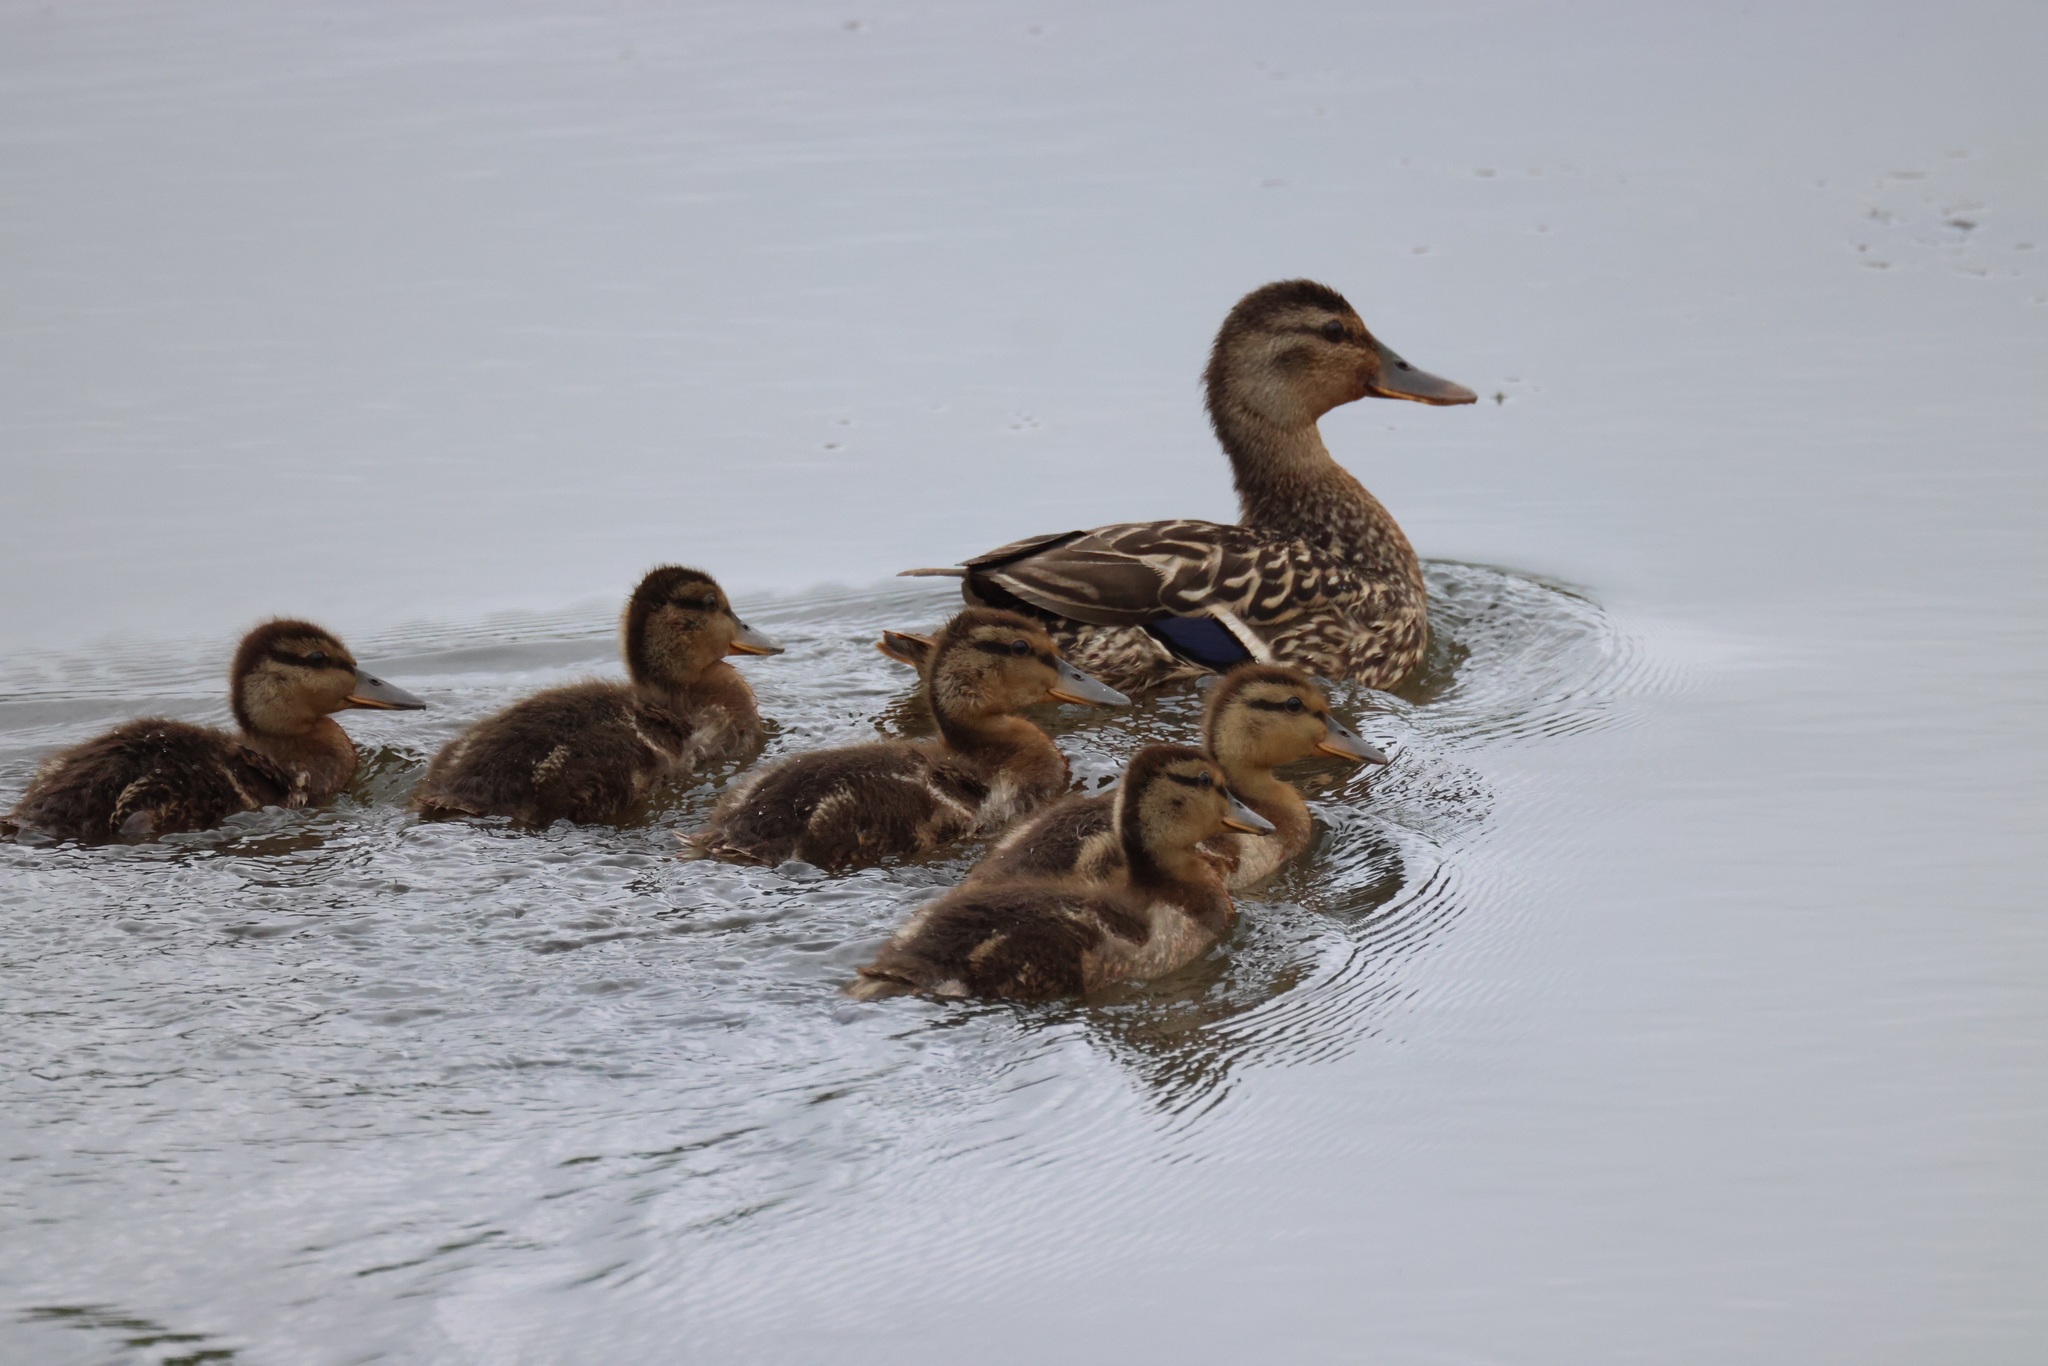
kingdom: Animalia
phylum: Chordata
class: Aves
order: Anseriformes
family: Anatidae
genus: Anas
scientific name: Anas platyrhynchos
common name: Mallard
